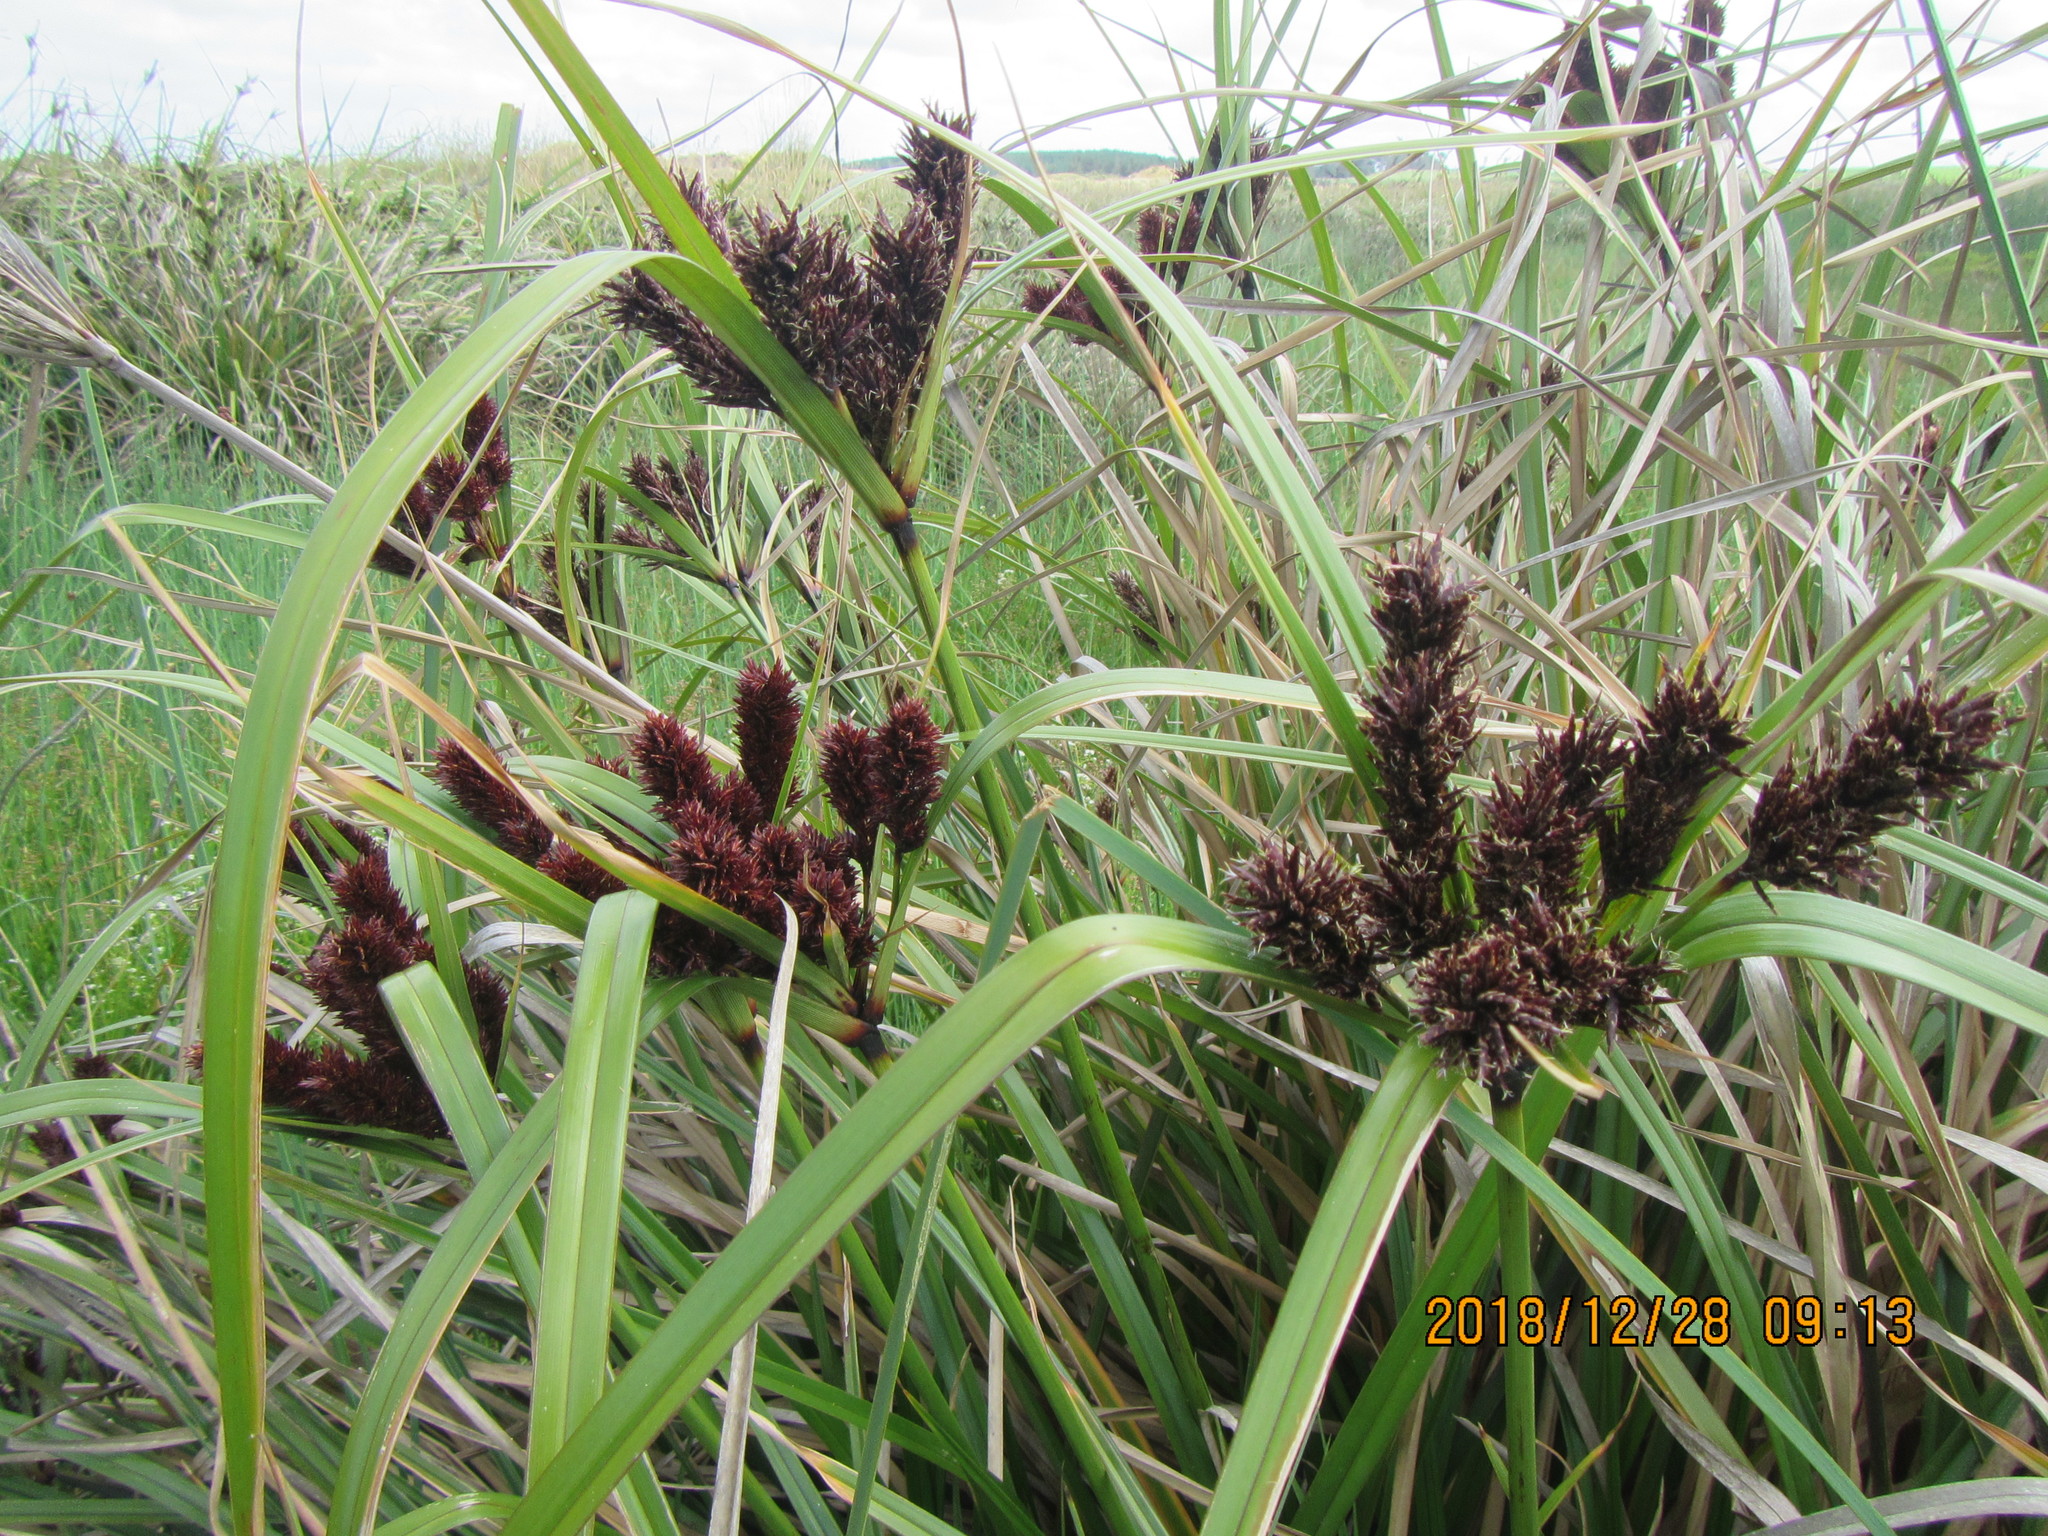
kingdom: Plantae
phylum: Tracheophyta
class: Liliopsida
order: Poales
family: Cyperaceae
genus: Cyperus
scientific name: Cyperus ustulatus
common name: Giant umbrella-sedge
